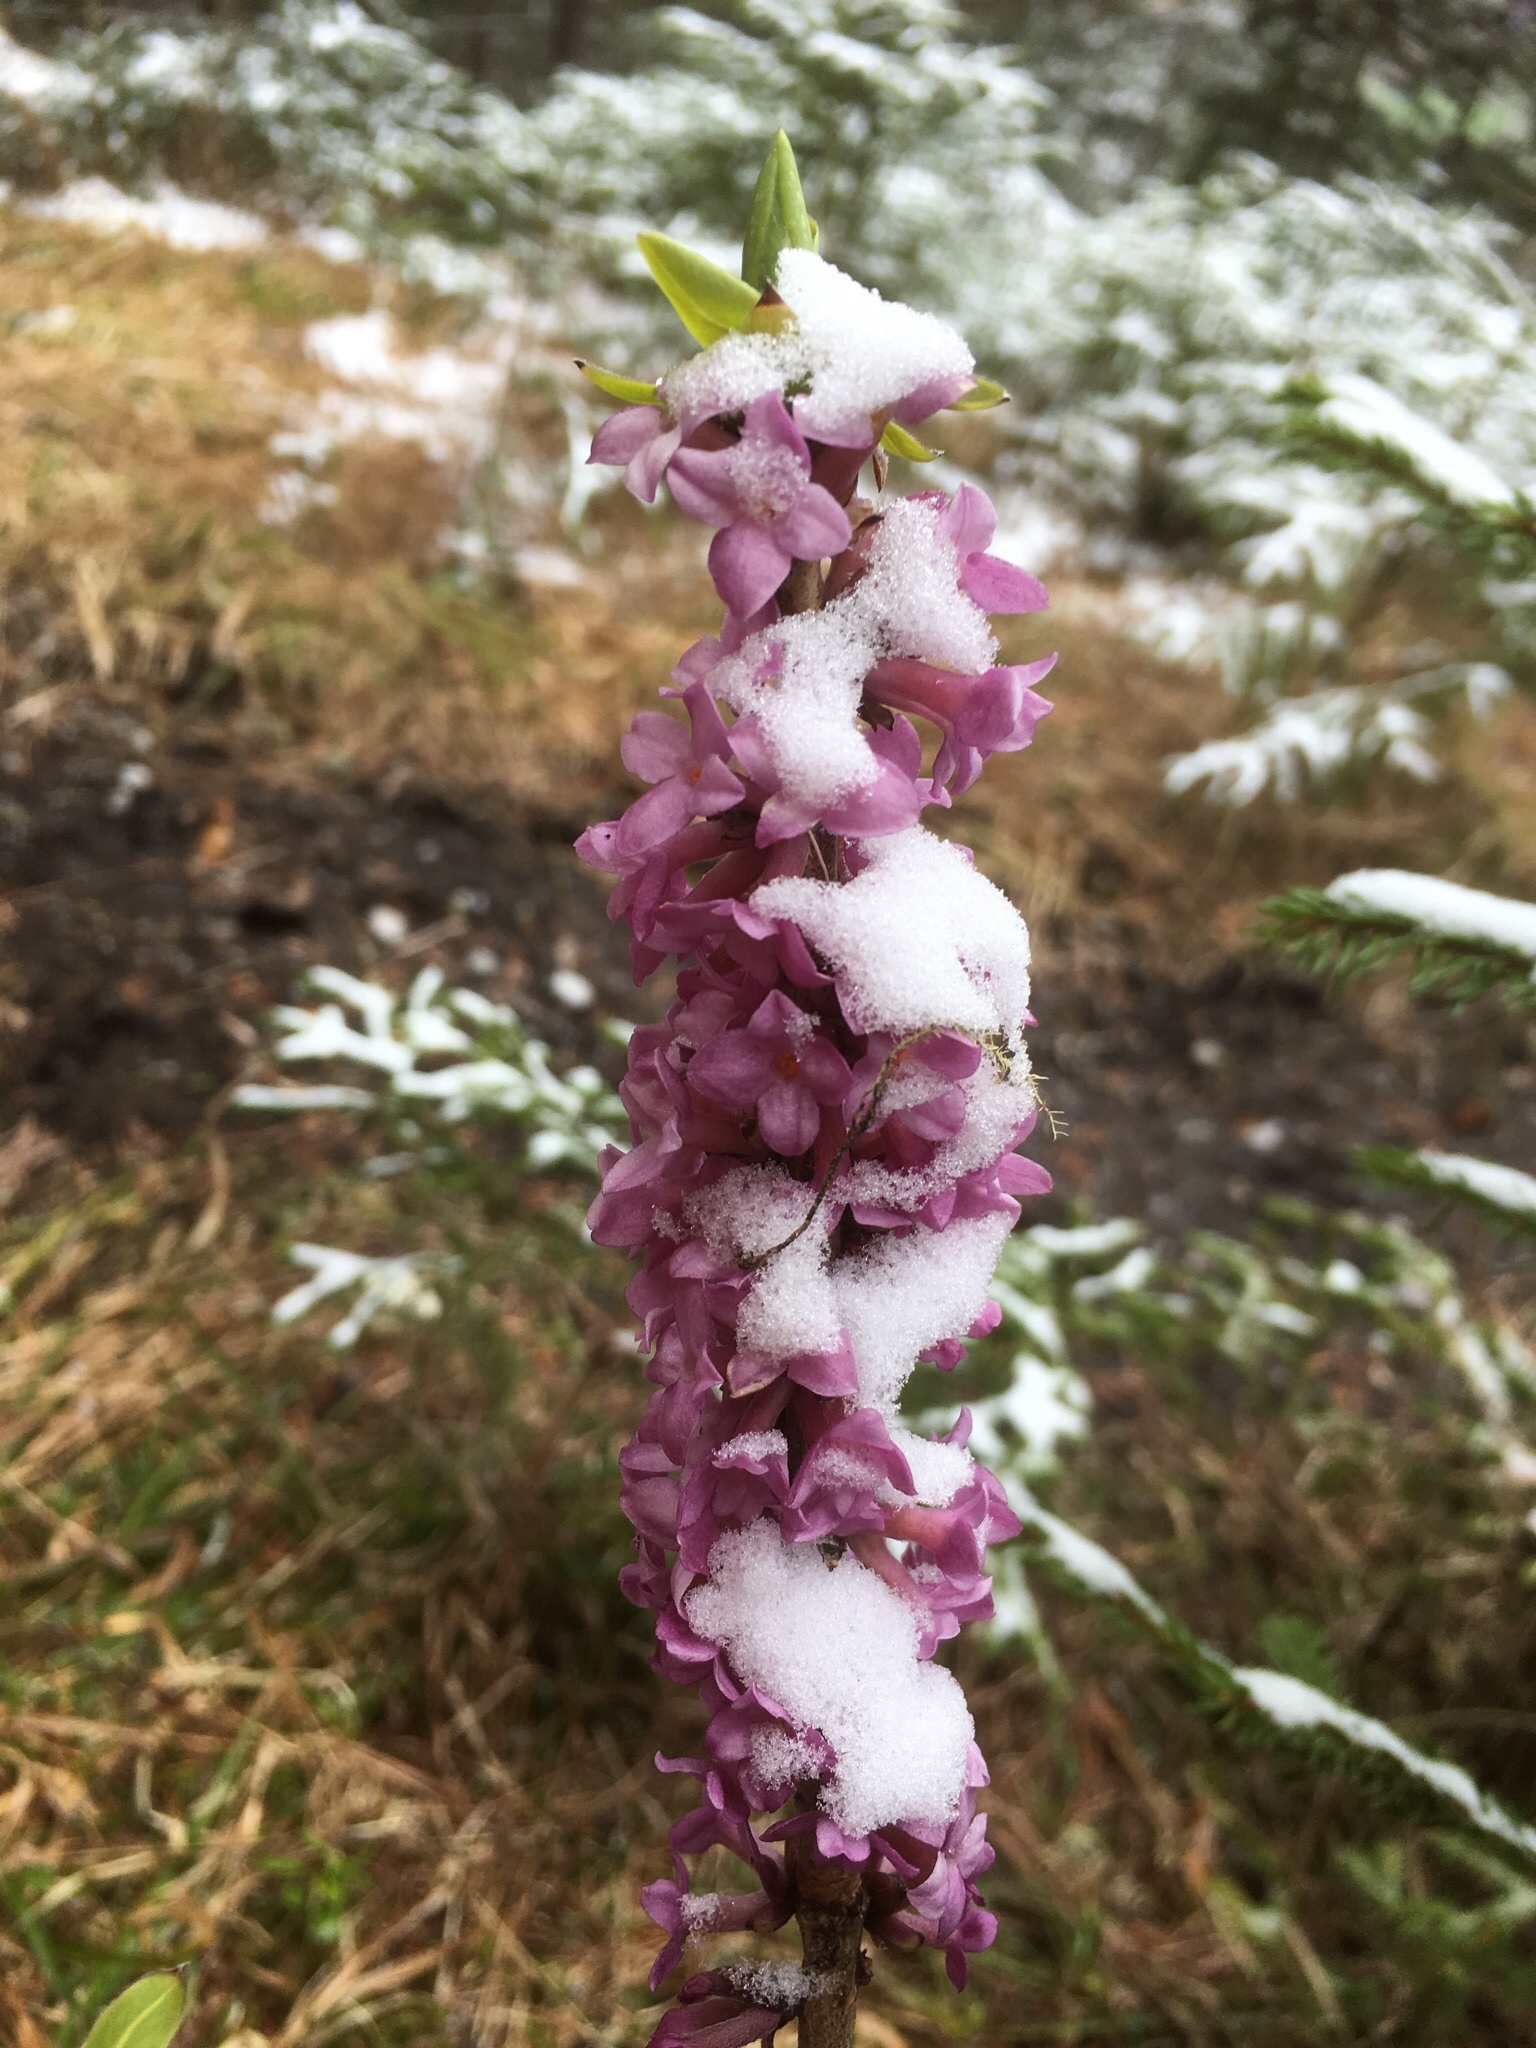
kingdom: Plantae
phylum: Tracheophyta
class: Magnoliopsida
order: Malvales
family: Thymelaeaceae
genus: Daphne
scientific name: Daphne mezereum
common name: Mezereon
